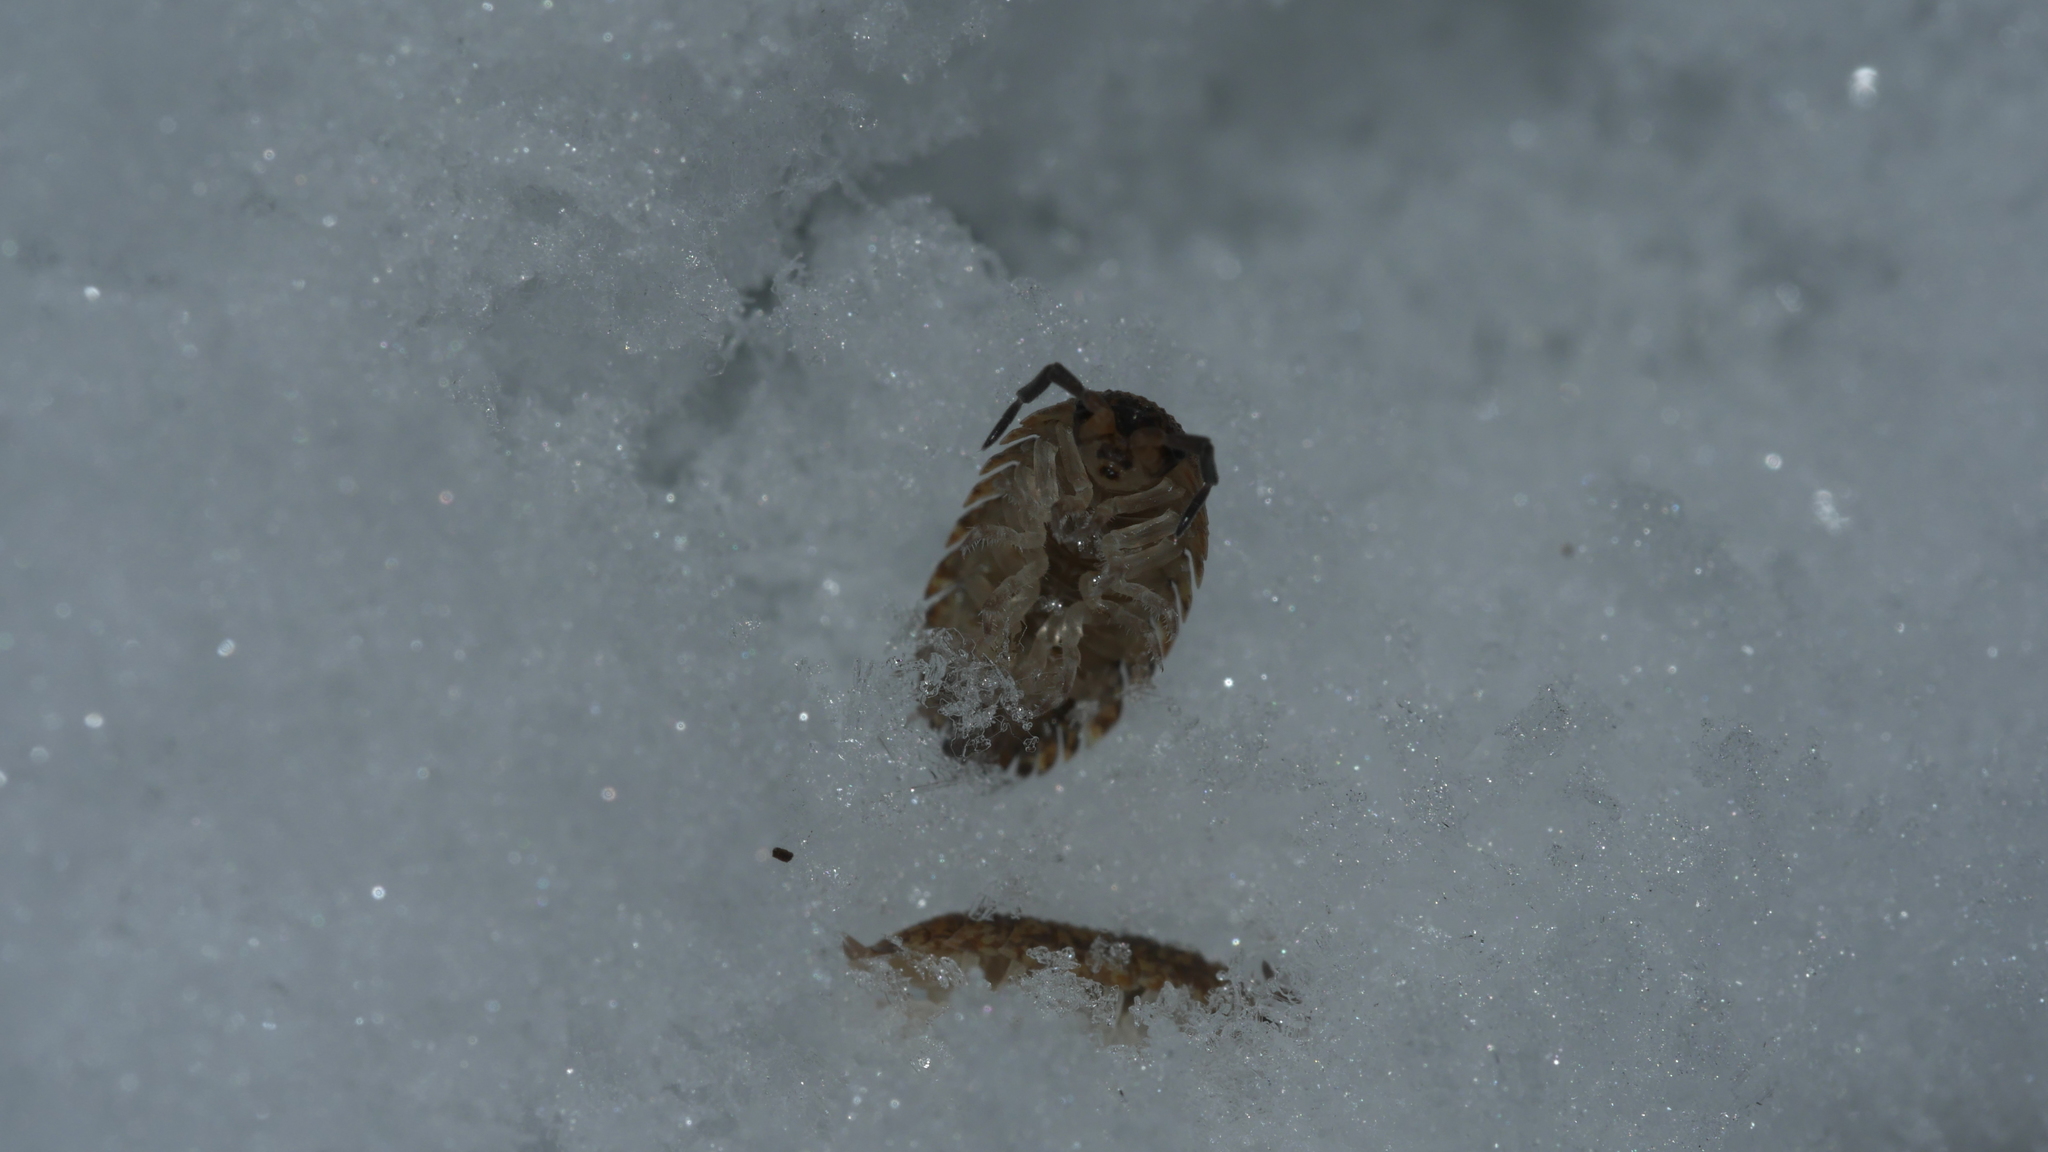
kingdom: Animalia
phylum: Arthropoda
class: Malacostraca
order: Isopoda
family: Porcellionidae
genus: Porcellio
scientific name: Porcellio scaber
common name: Common rough woodlouse
